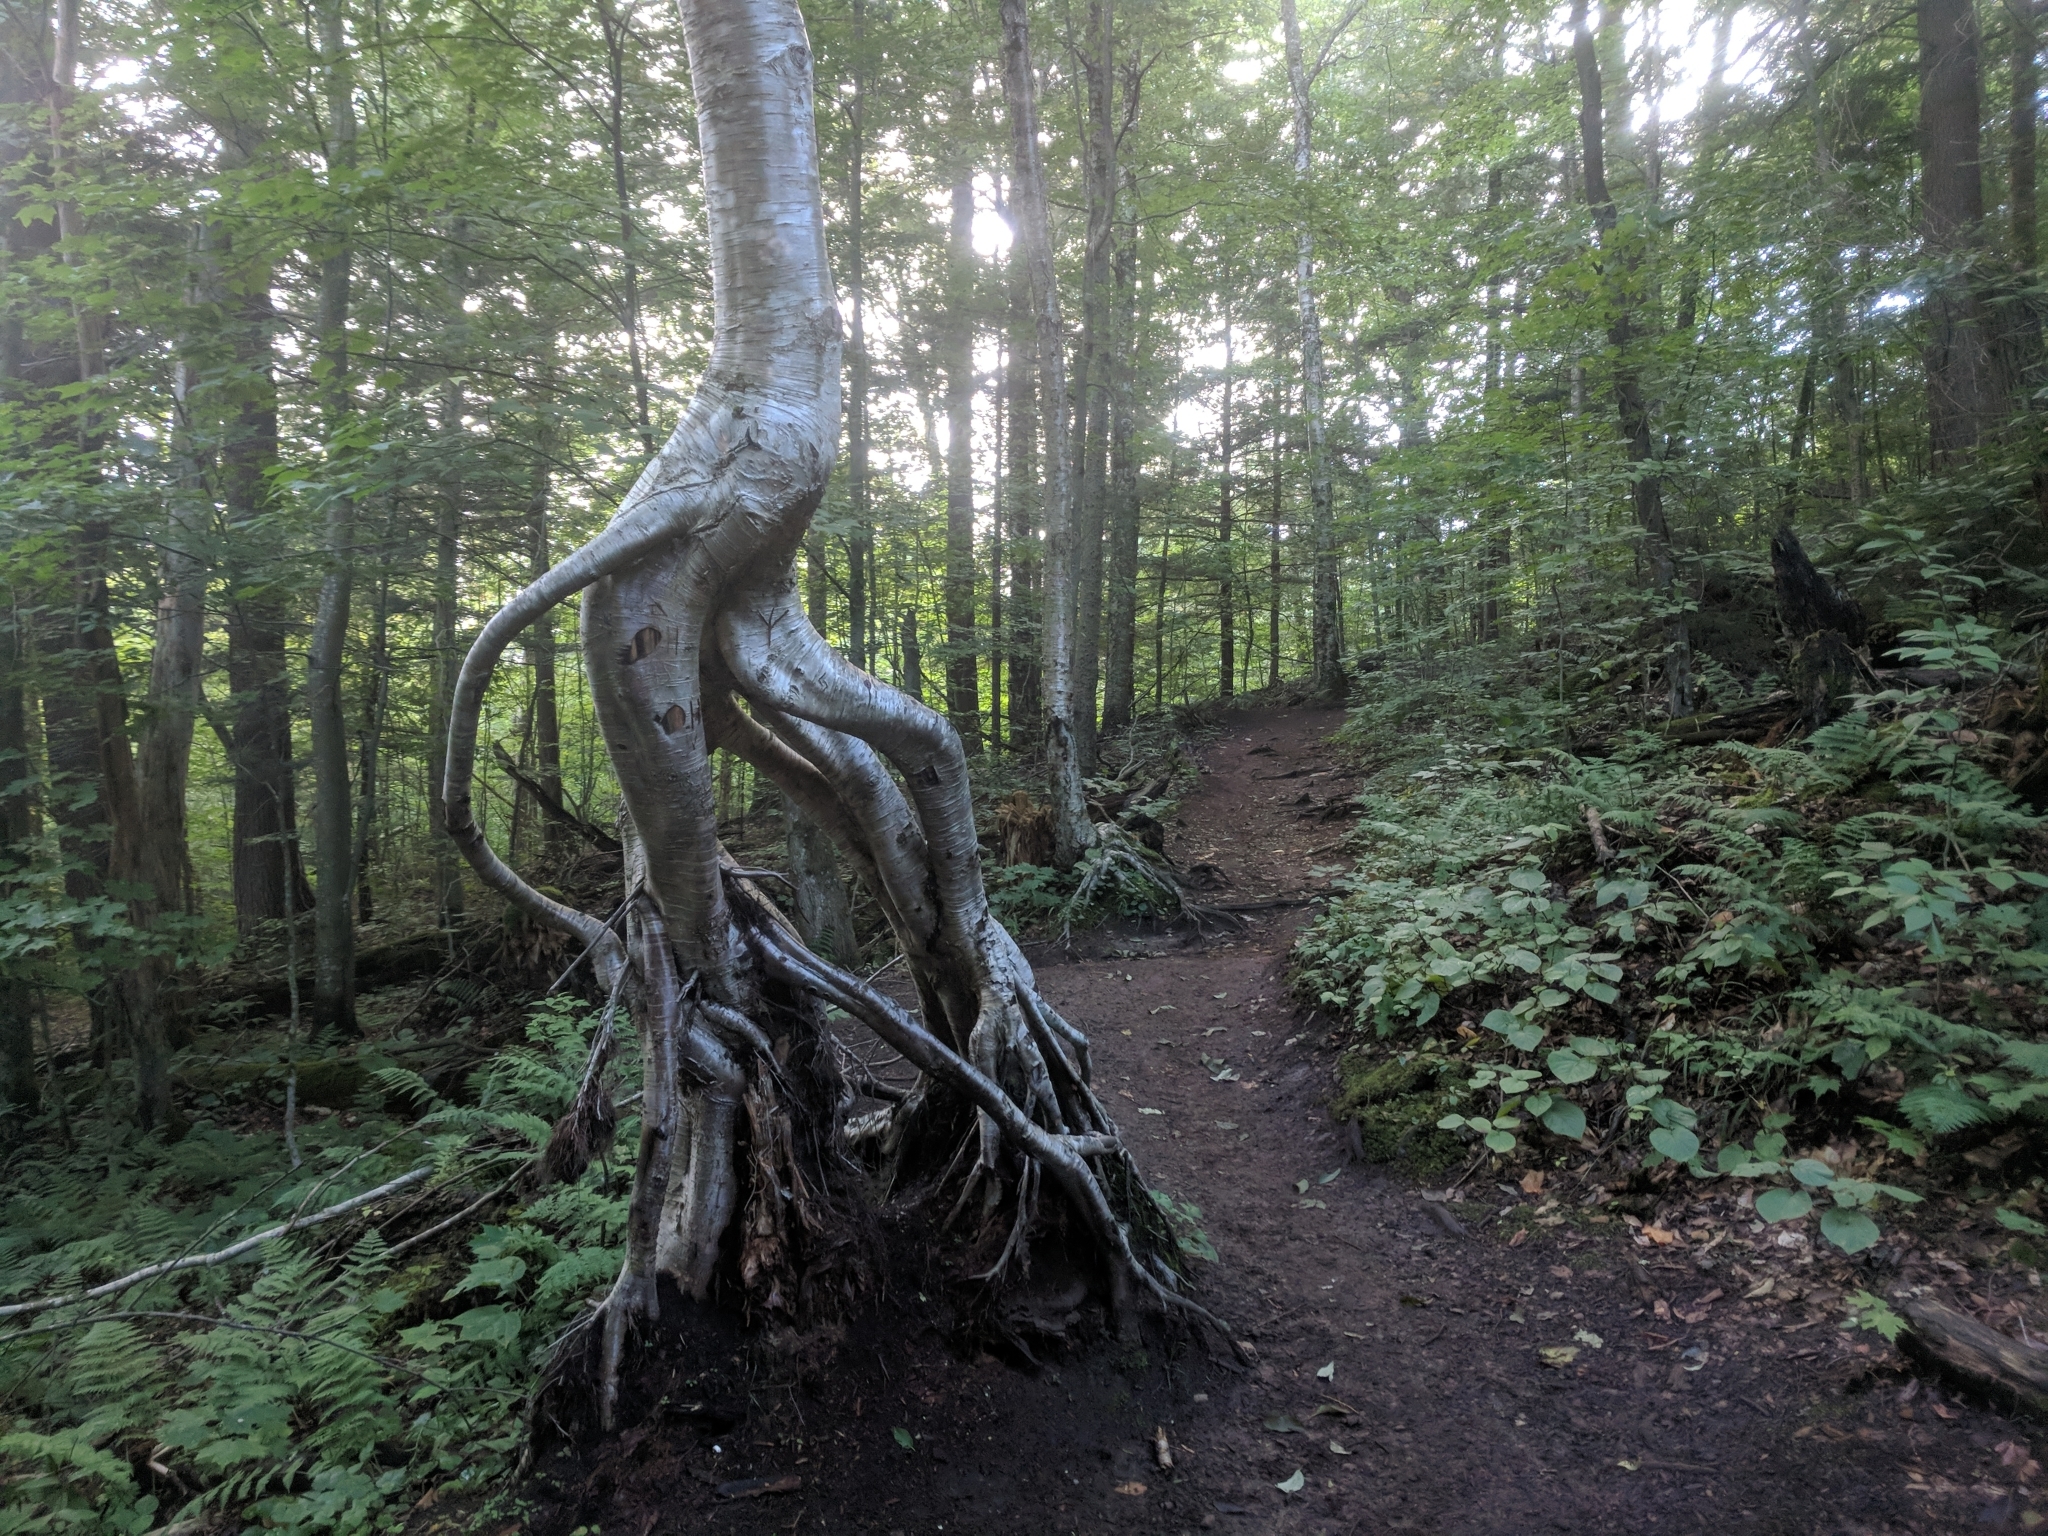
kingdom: Plantae
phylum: Tracheophyta
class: Magnoliopsida
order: Fagales
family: Betulaceae
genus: Betula
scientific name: Betula alleghaniensis
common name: Yellow birch
